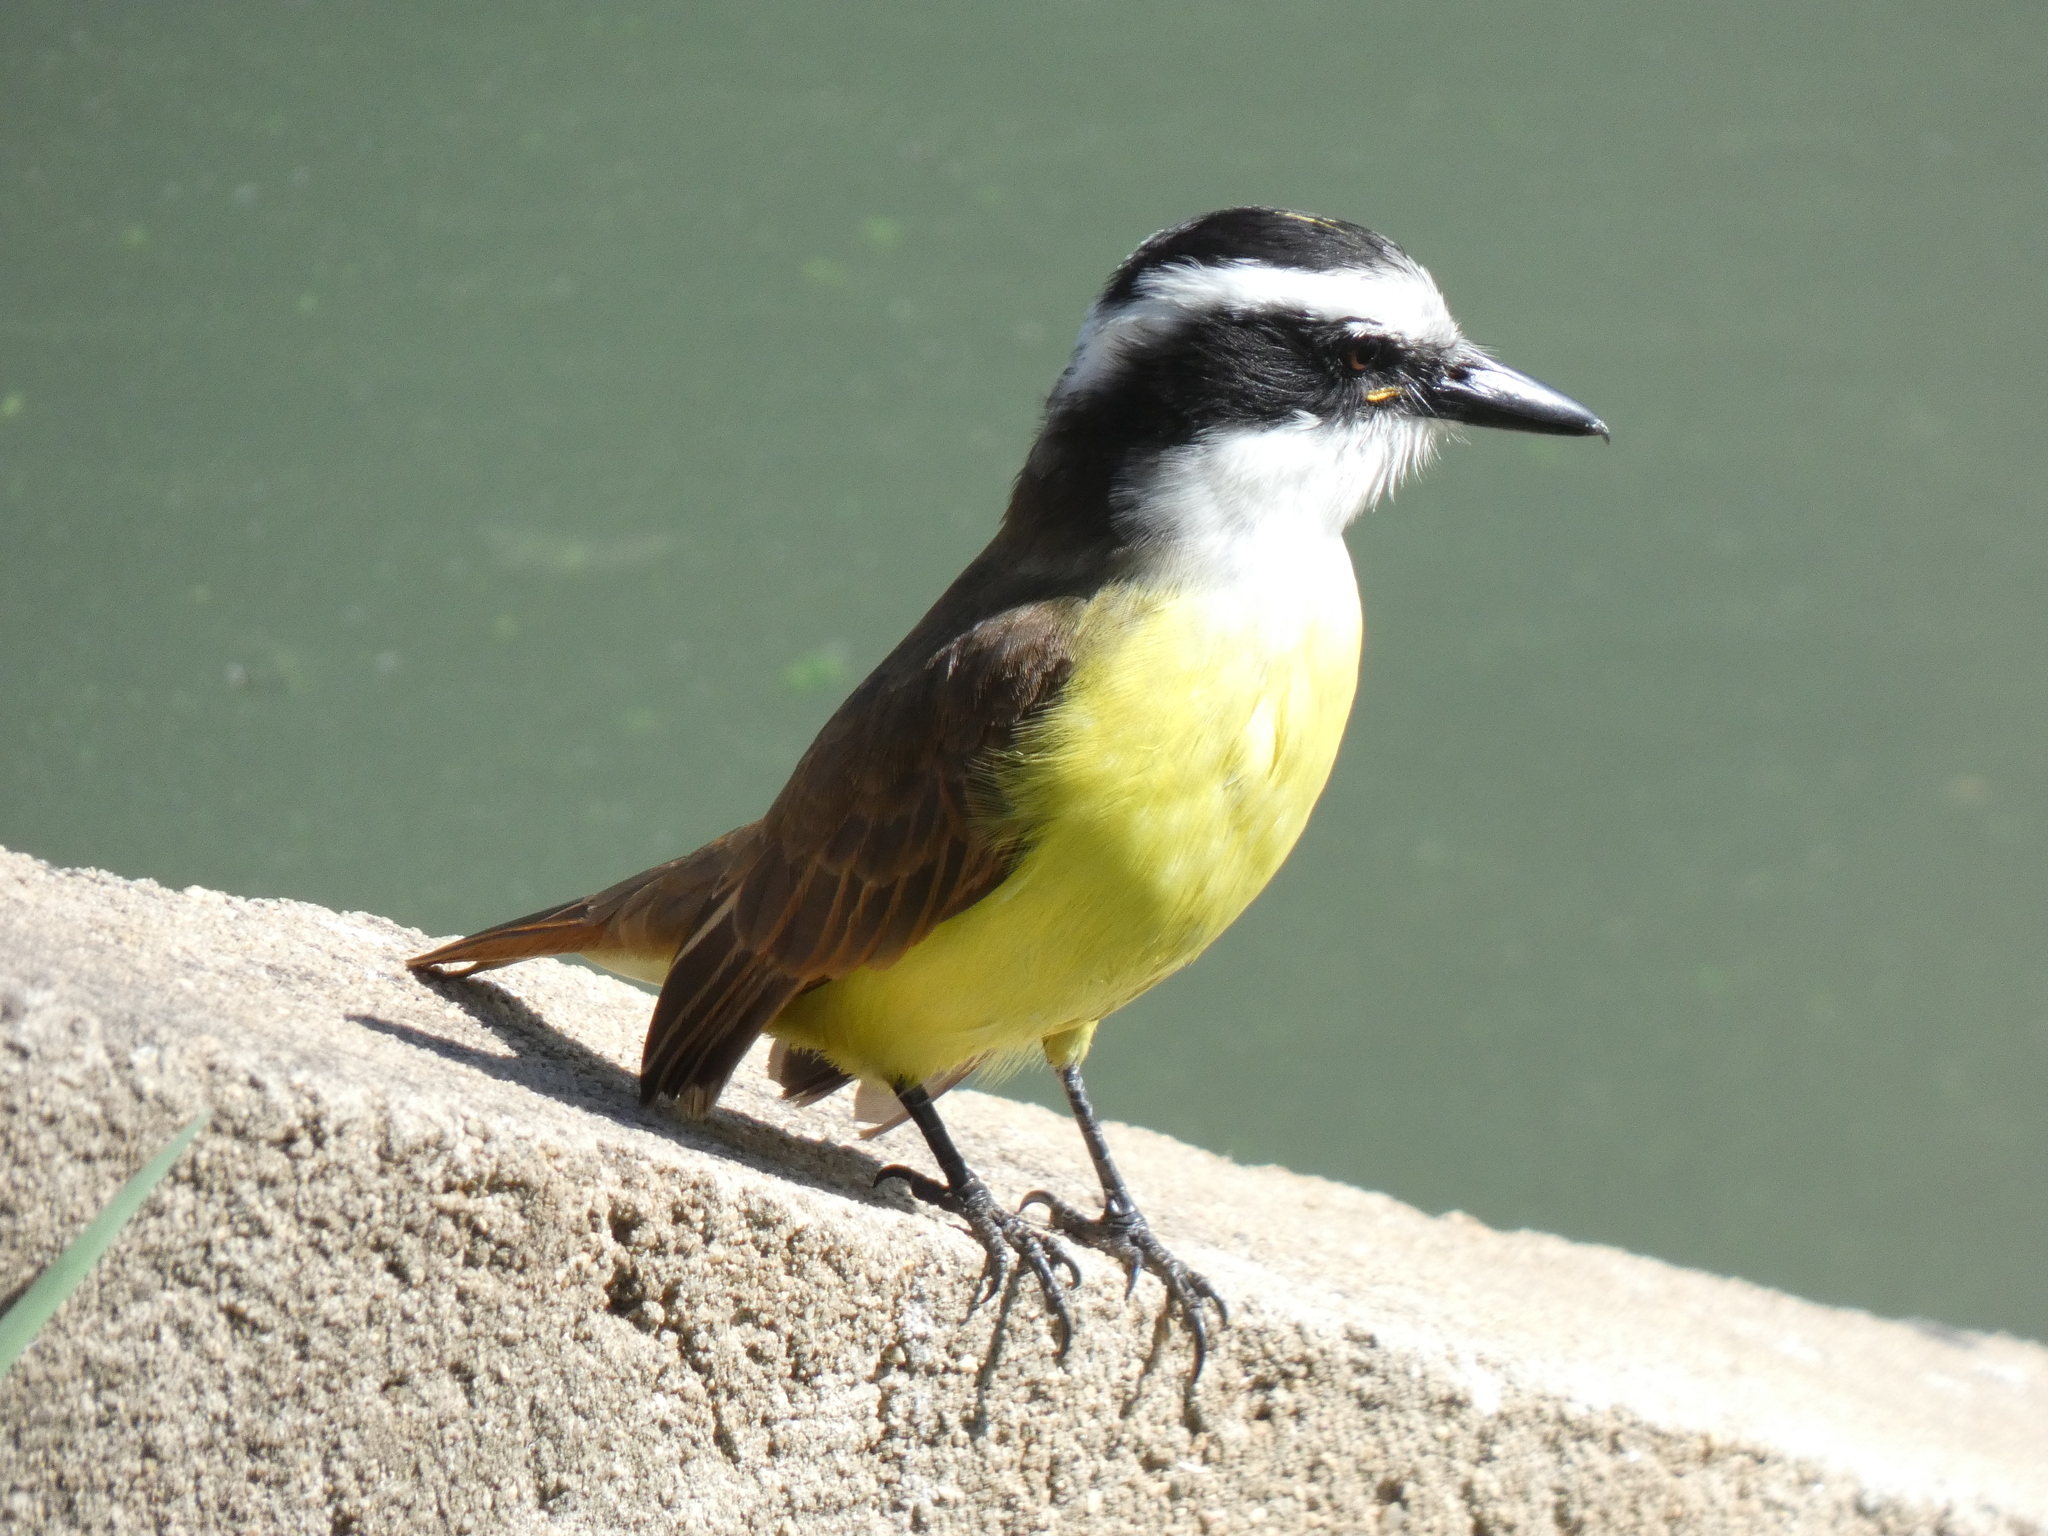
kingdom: Animalia
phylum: Chordata
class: Aves
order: Passeriformes
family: Tyrannidae
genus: Pitangus
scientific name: Pitangus sulphuratus
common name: Great kiskadee
